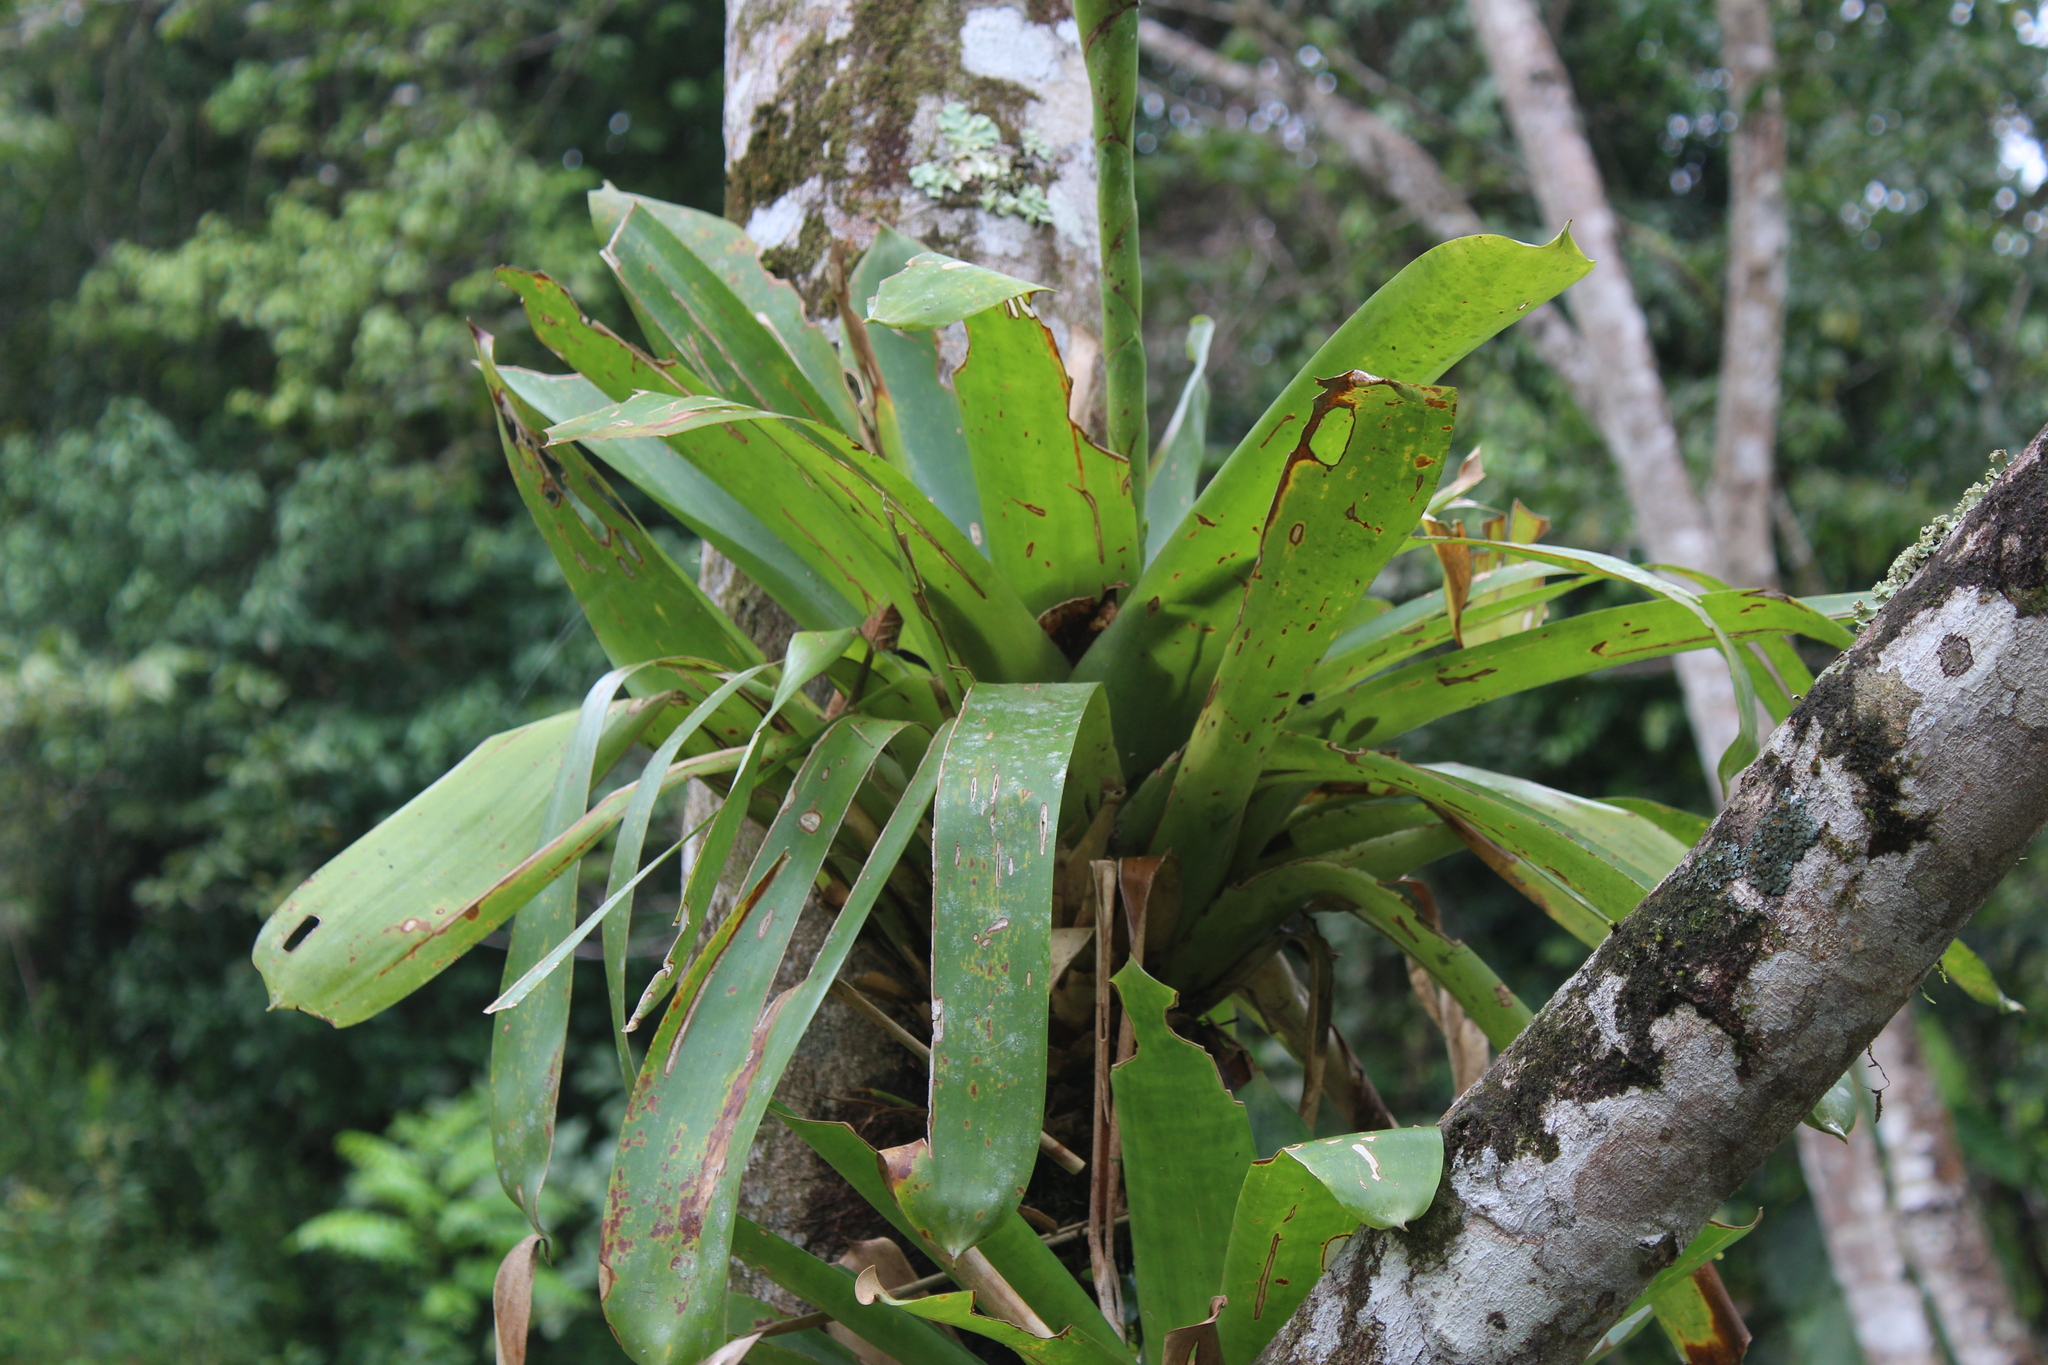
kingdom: Plantae
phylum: Tracheophyta
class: Liliopsida
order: Poales
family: Bromeliaceae
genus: Werauhia
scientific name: Werauhia gladioliflora
